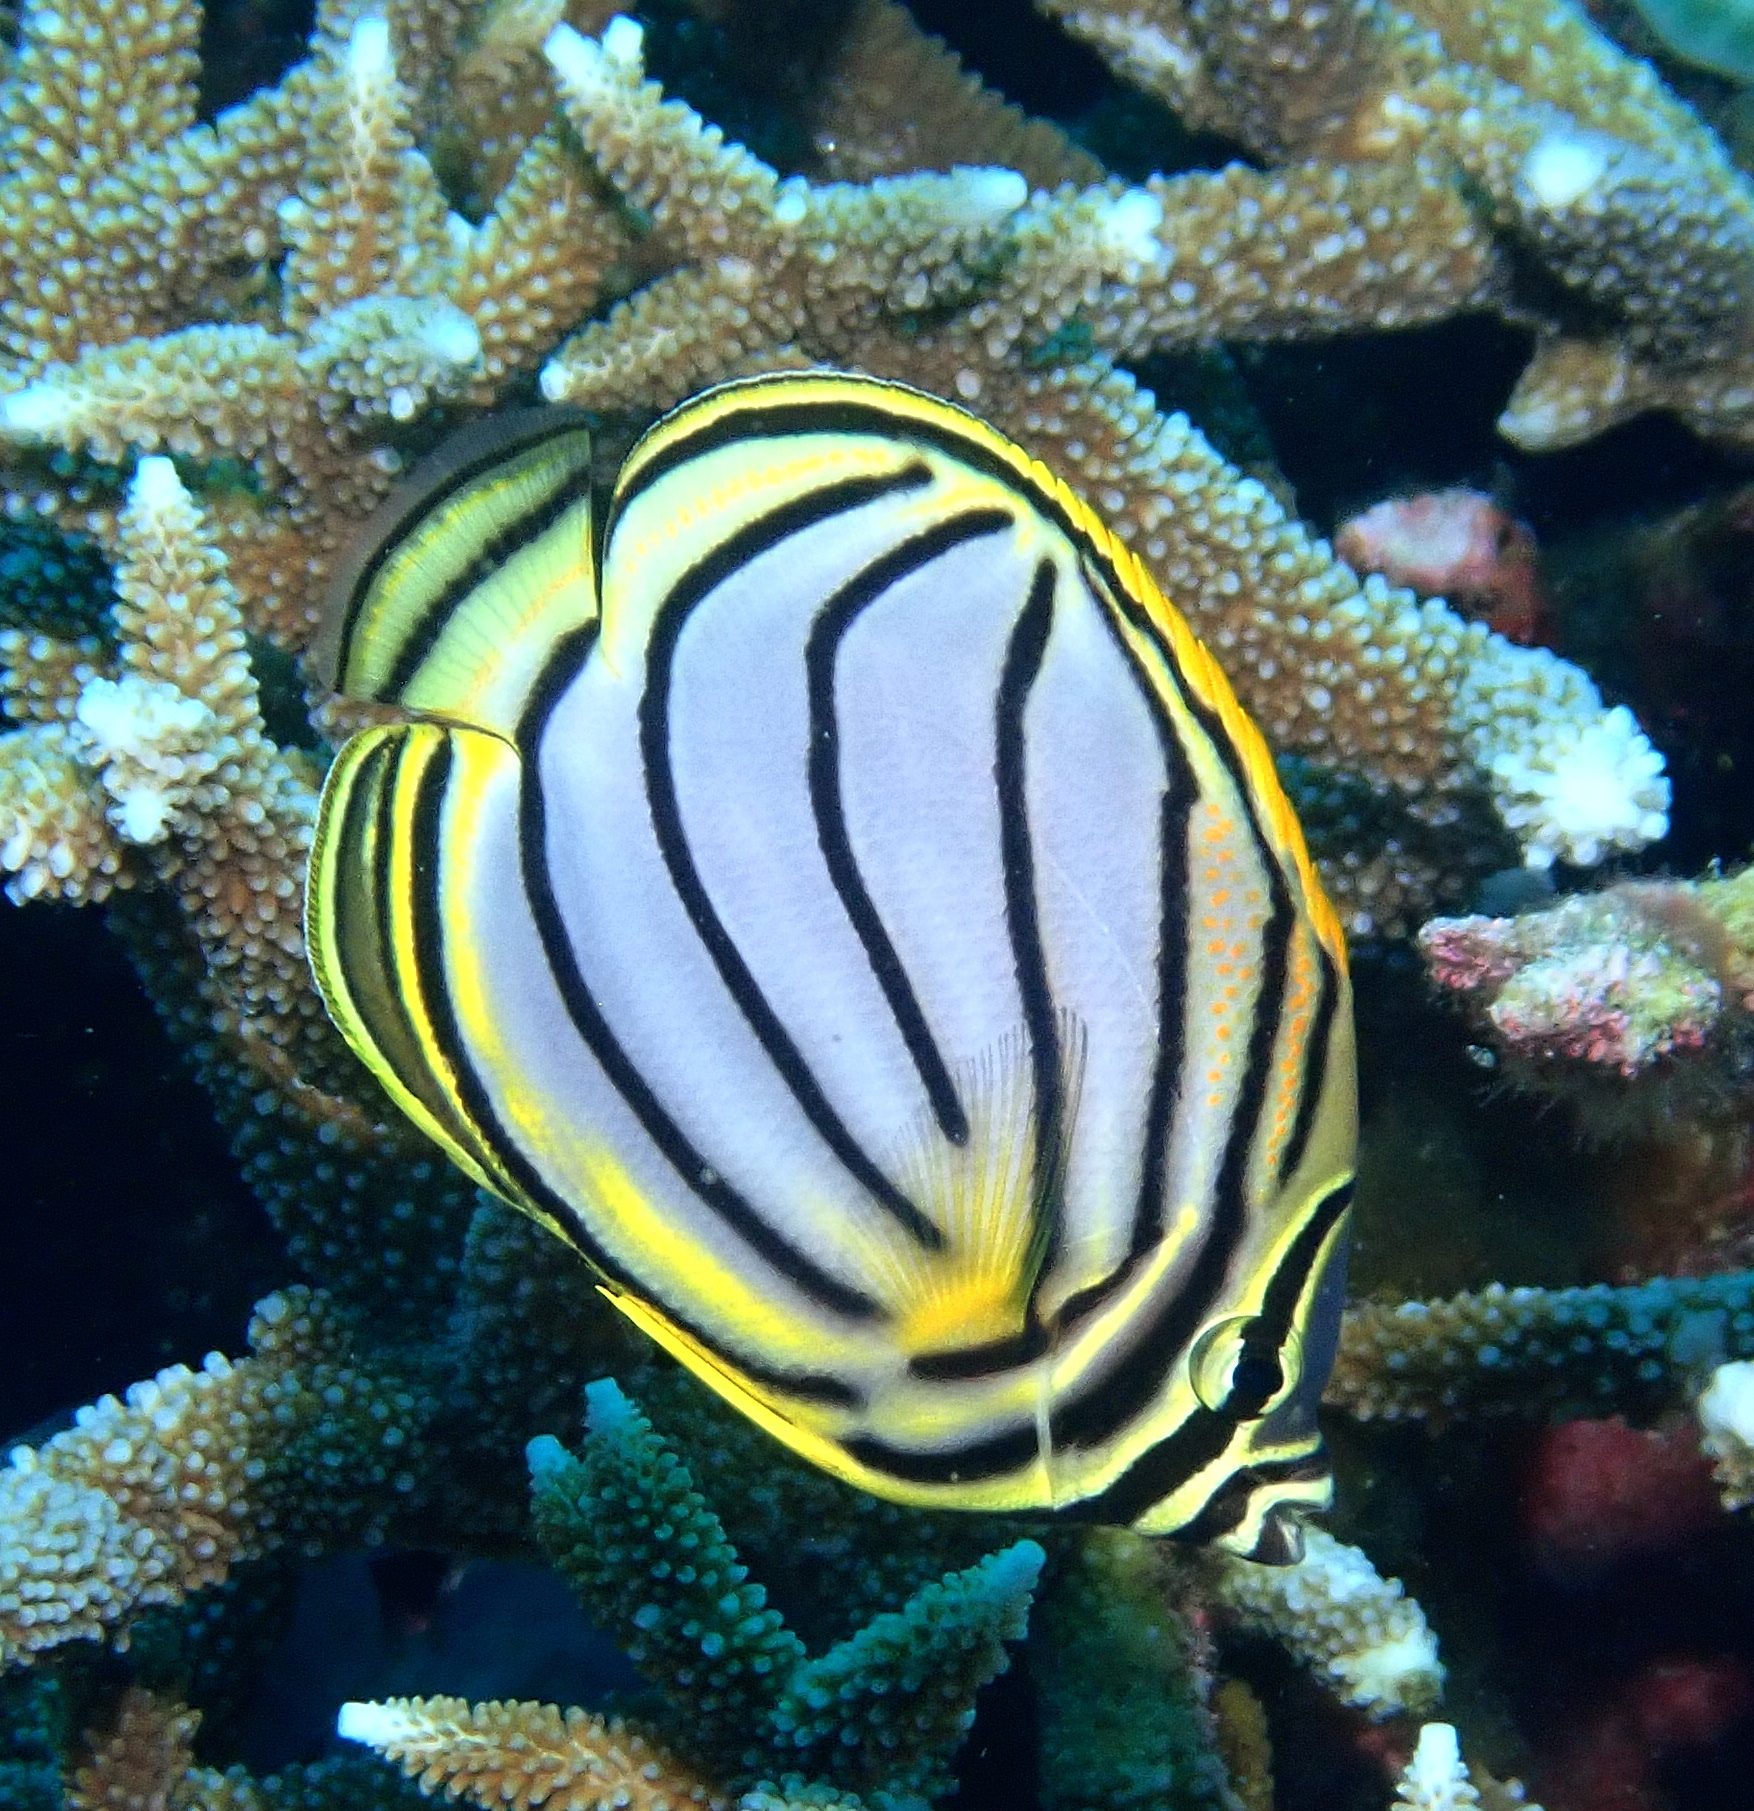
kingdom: Animalia
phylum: Chordata
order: Perciformes
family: Chaetodontidae
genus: Chaetodon
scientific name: Chaetodon meyeri
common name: Meyer's butterflyfish
